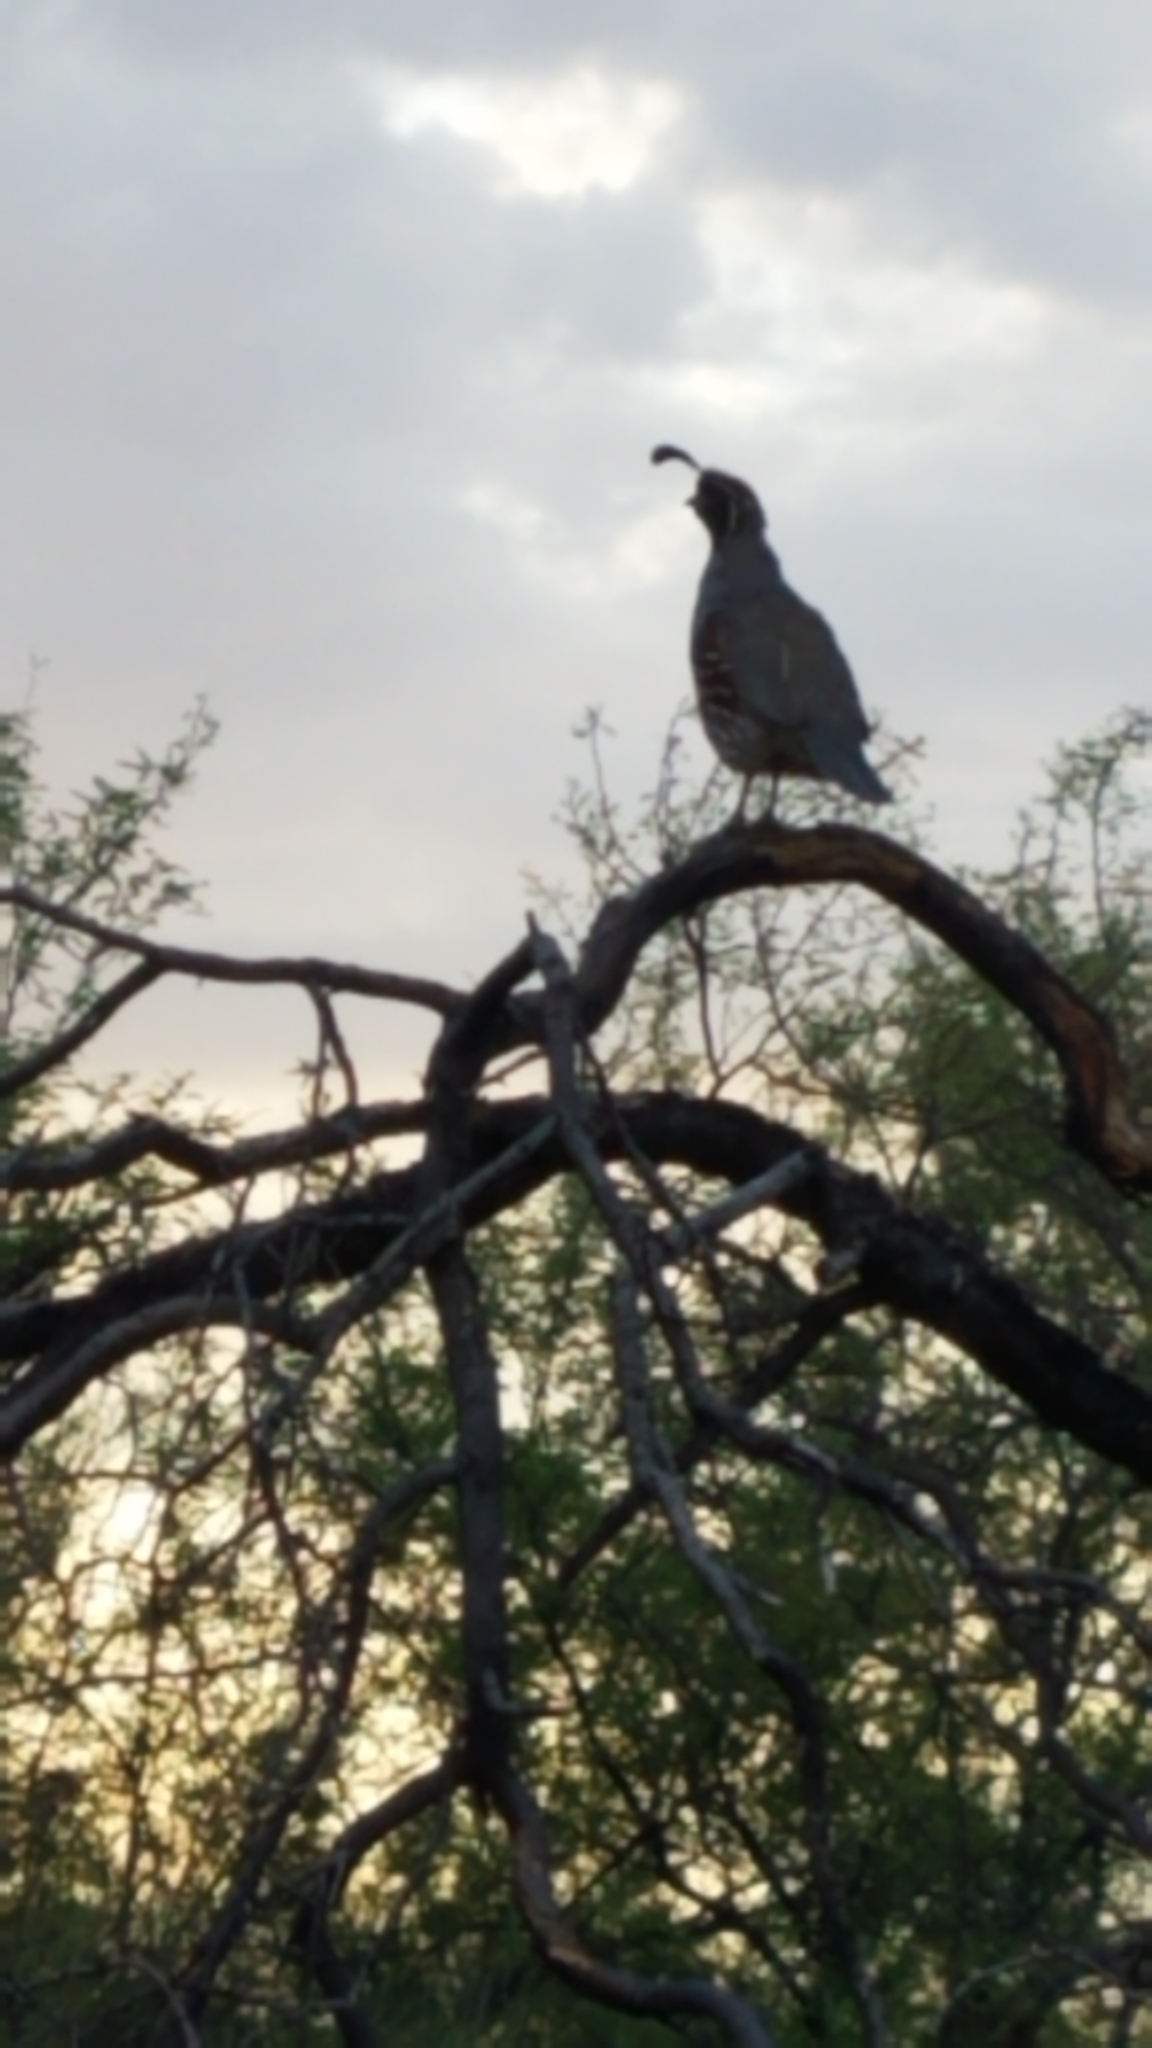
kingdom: Animalia
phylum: Chordata
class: Aves
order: Galliformes
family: Odontophoridae
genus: Callipepla
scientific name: Callipepla gambelii
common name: Gambel's quail
